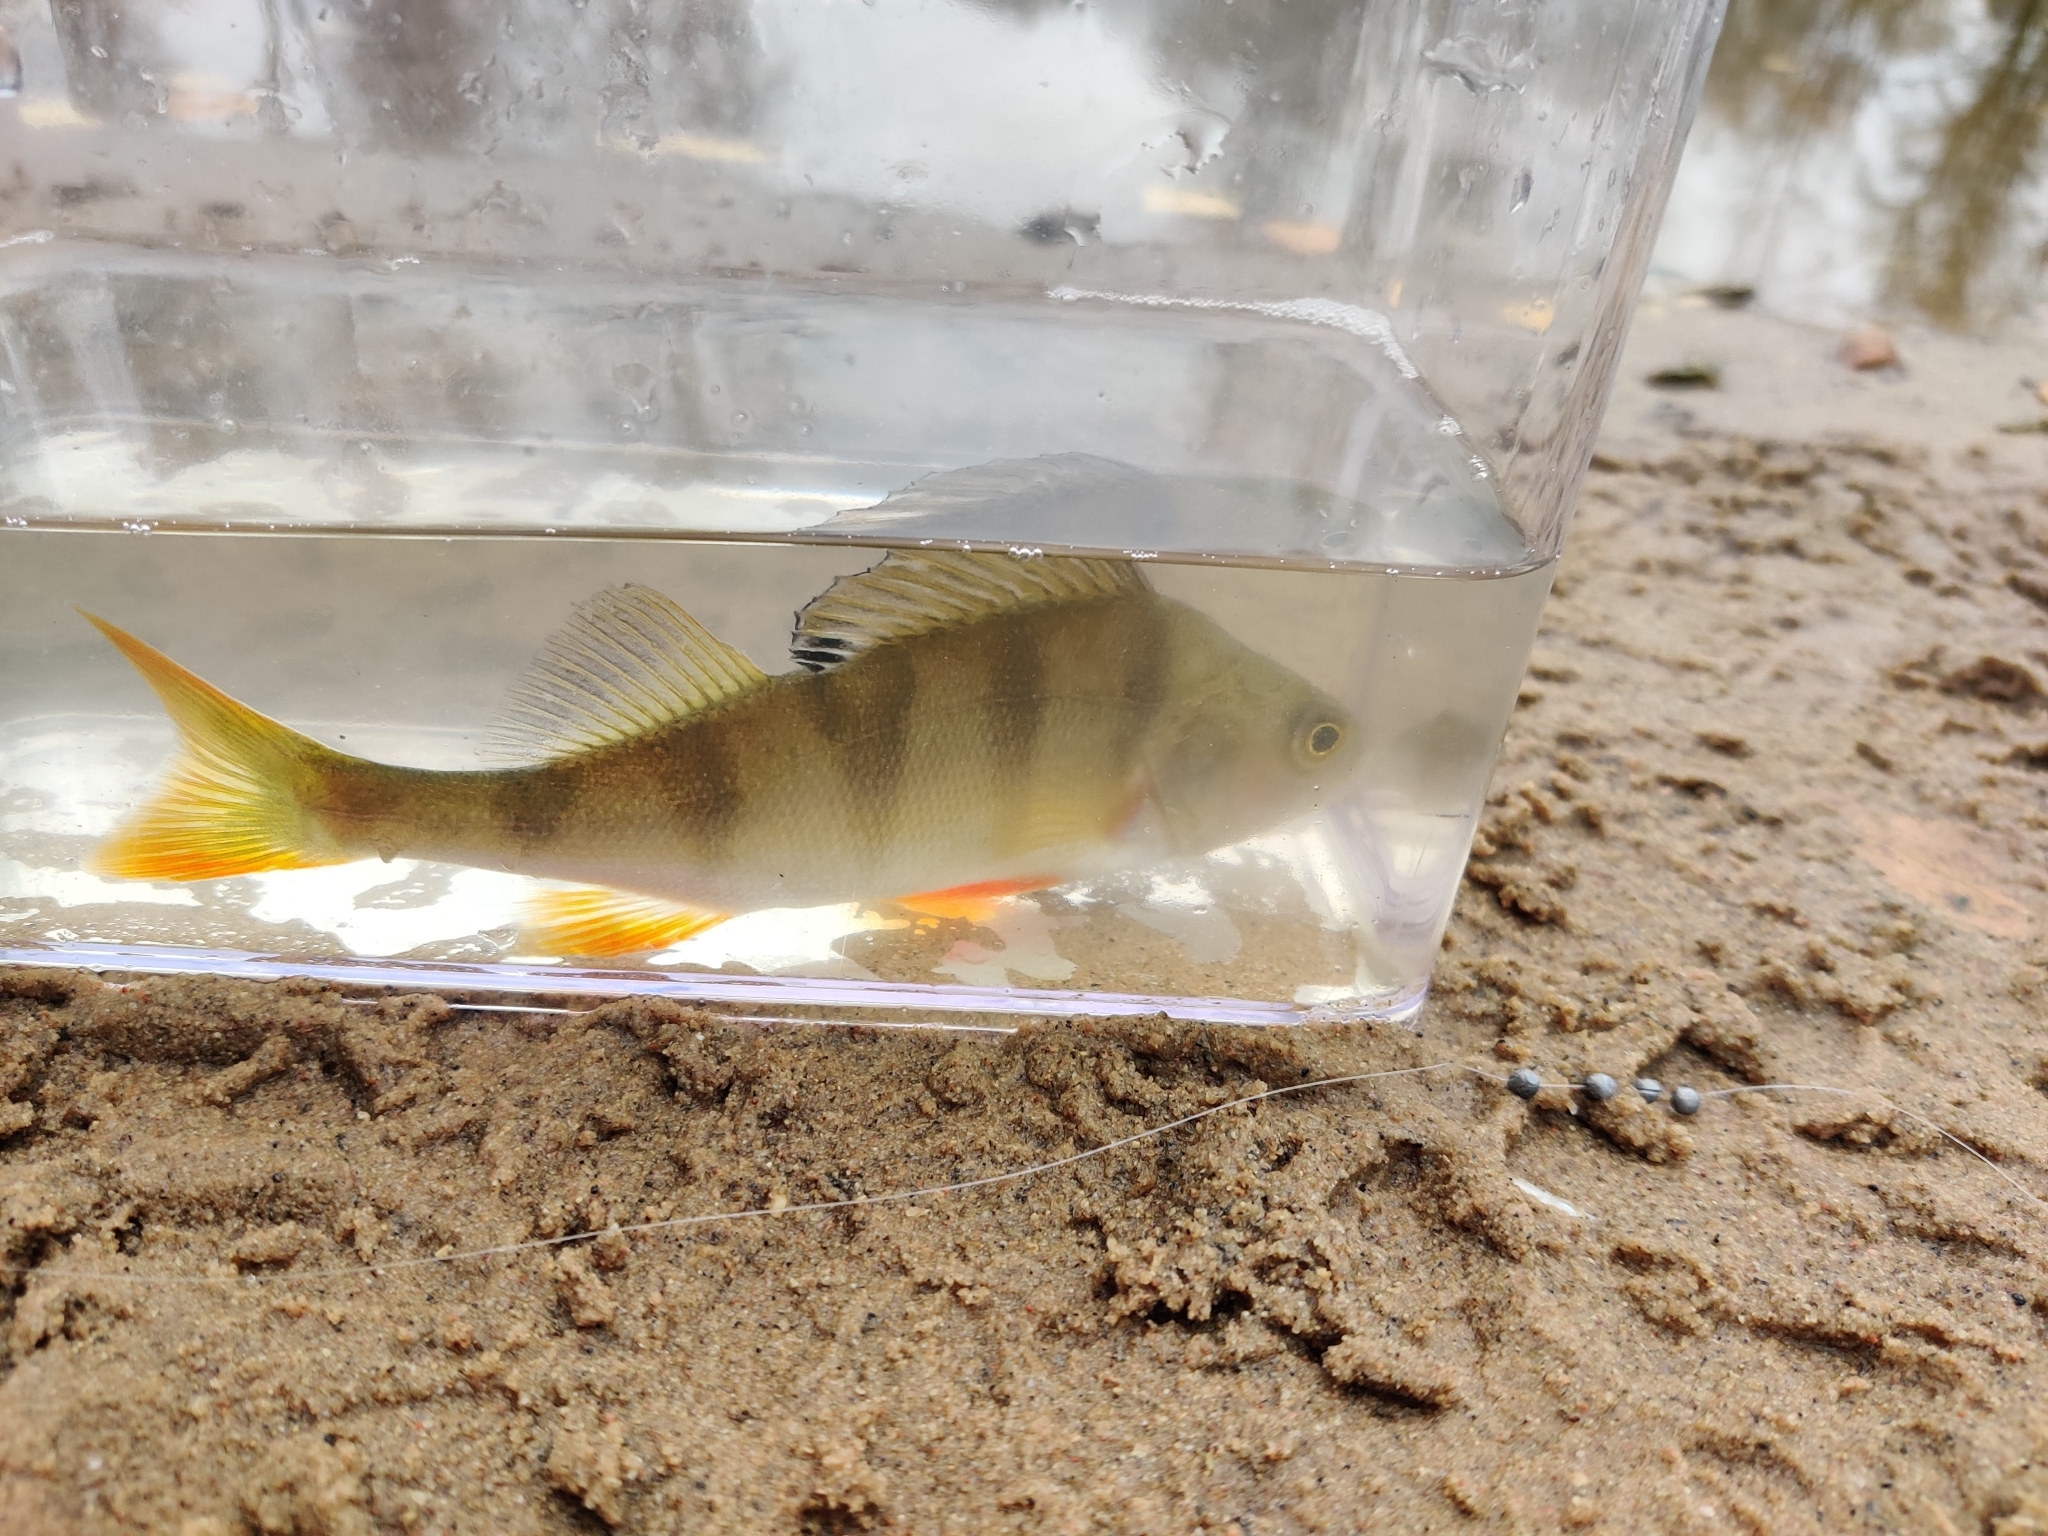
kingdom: Animalia
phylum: Chordata
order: Perciformes
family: Percidae
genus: Perca
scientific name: Perca fluviatilis
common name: Perch
